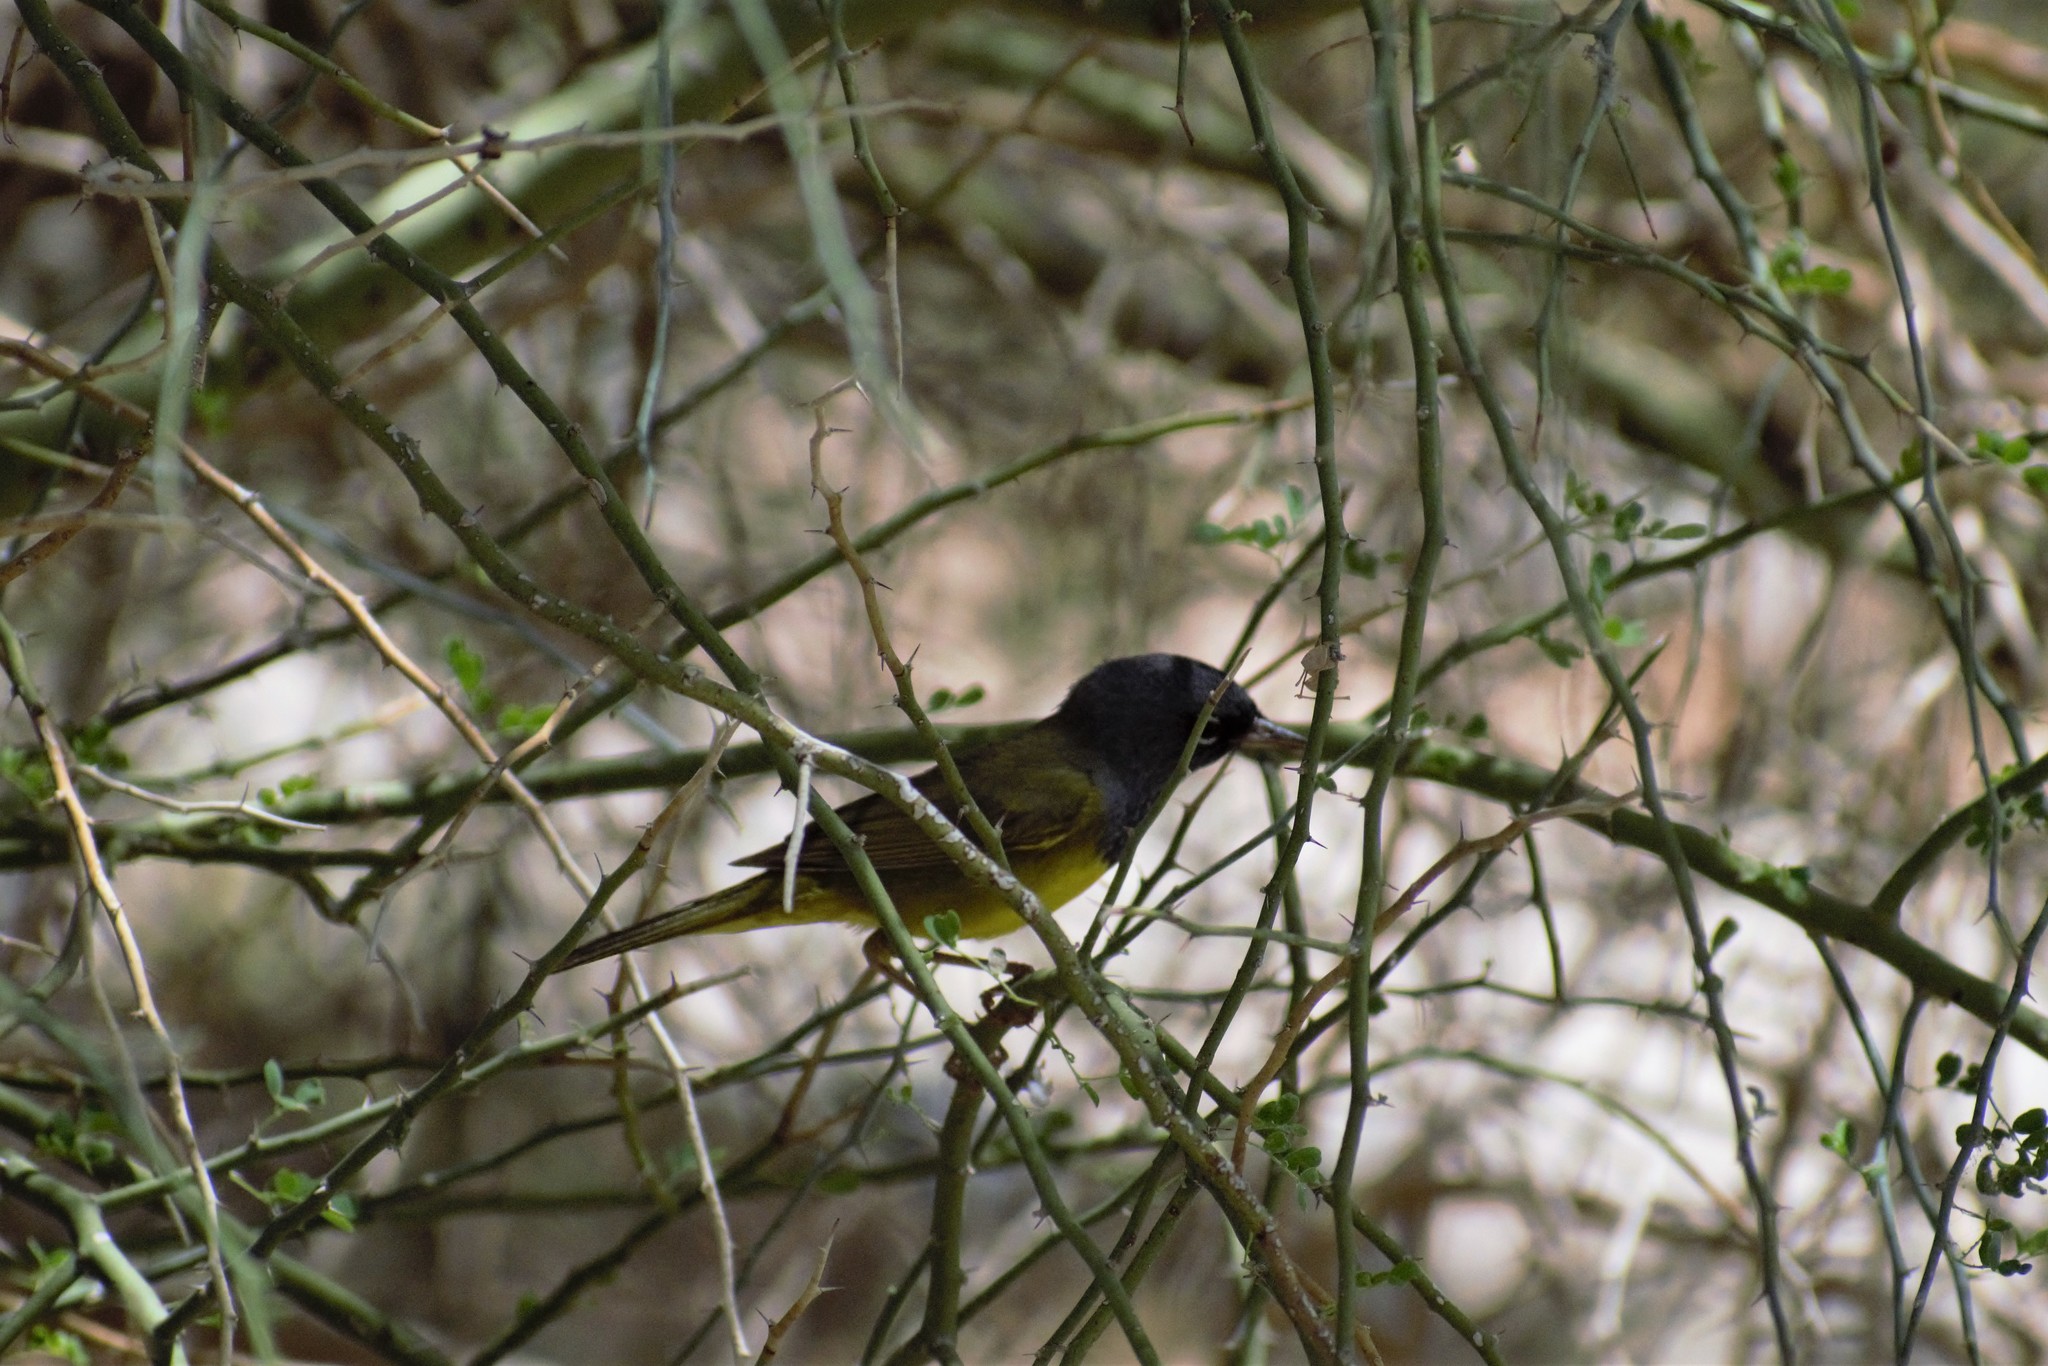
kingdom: Animalia
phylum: Chordata
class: Aves
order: Passeriformes
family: Parulidae
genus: Geothlypis
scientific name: Geothlypis tolmiei
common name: Macgillivray's warbler
